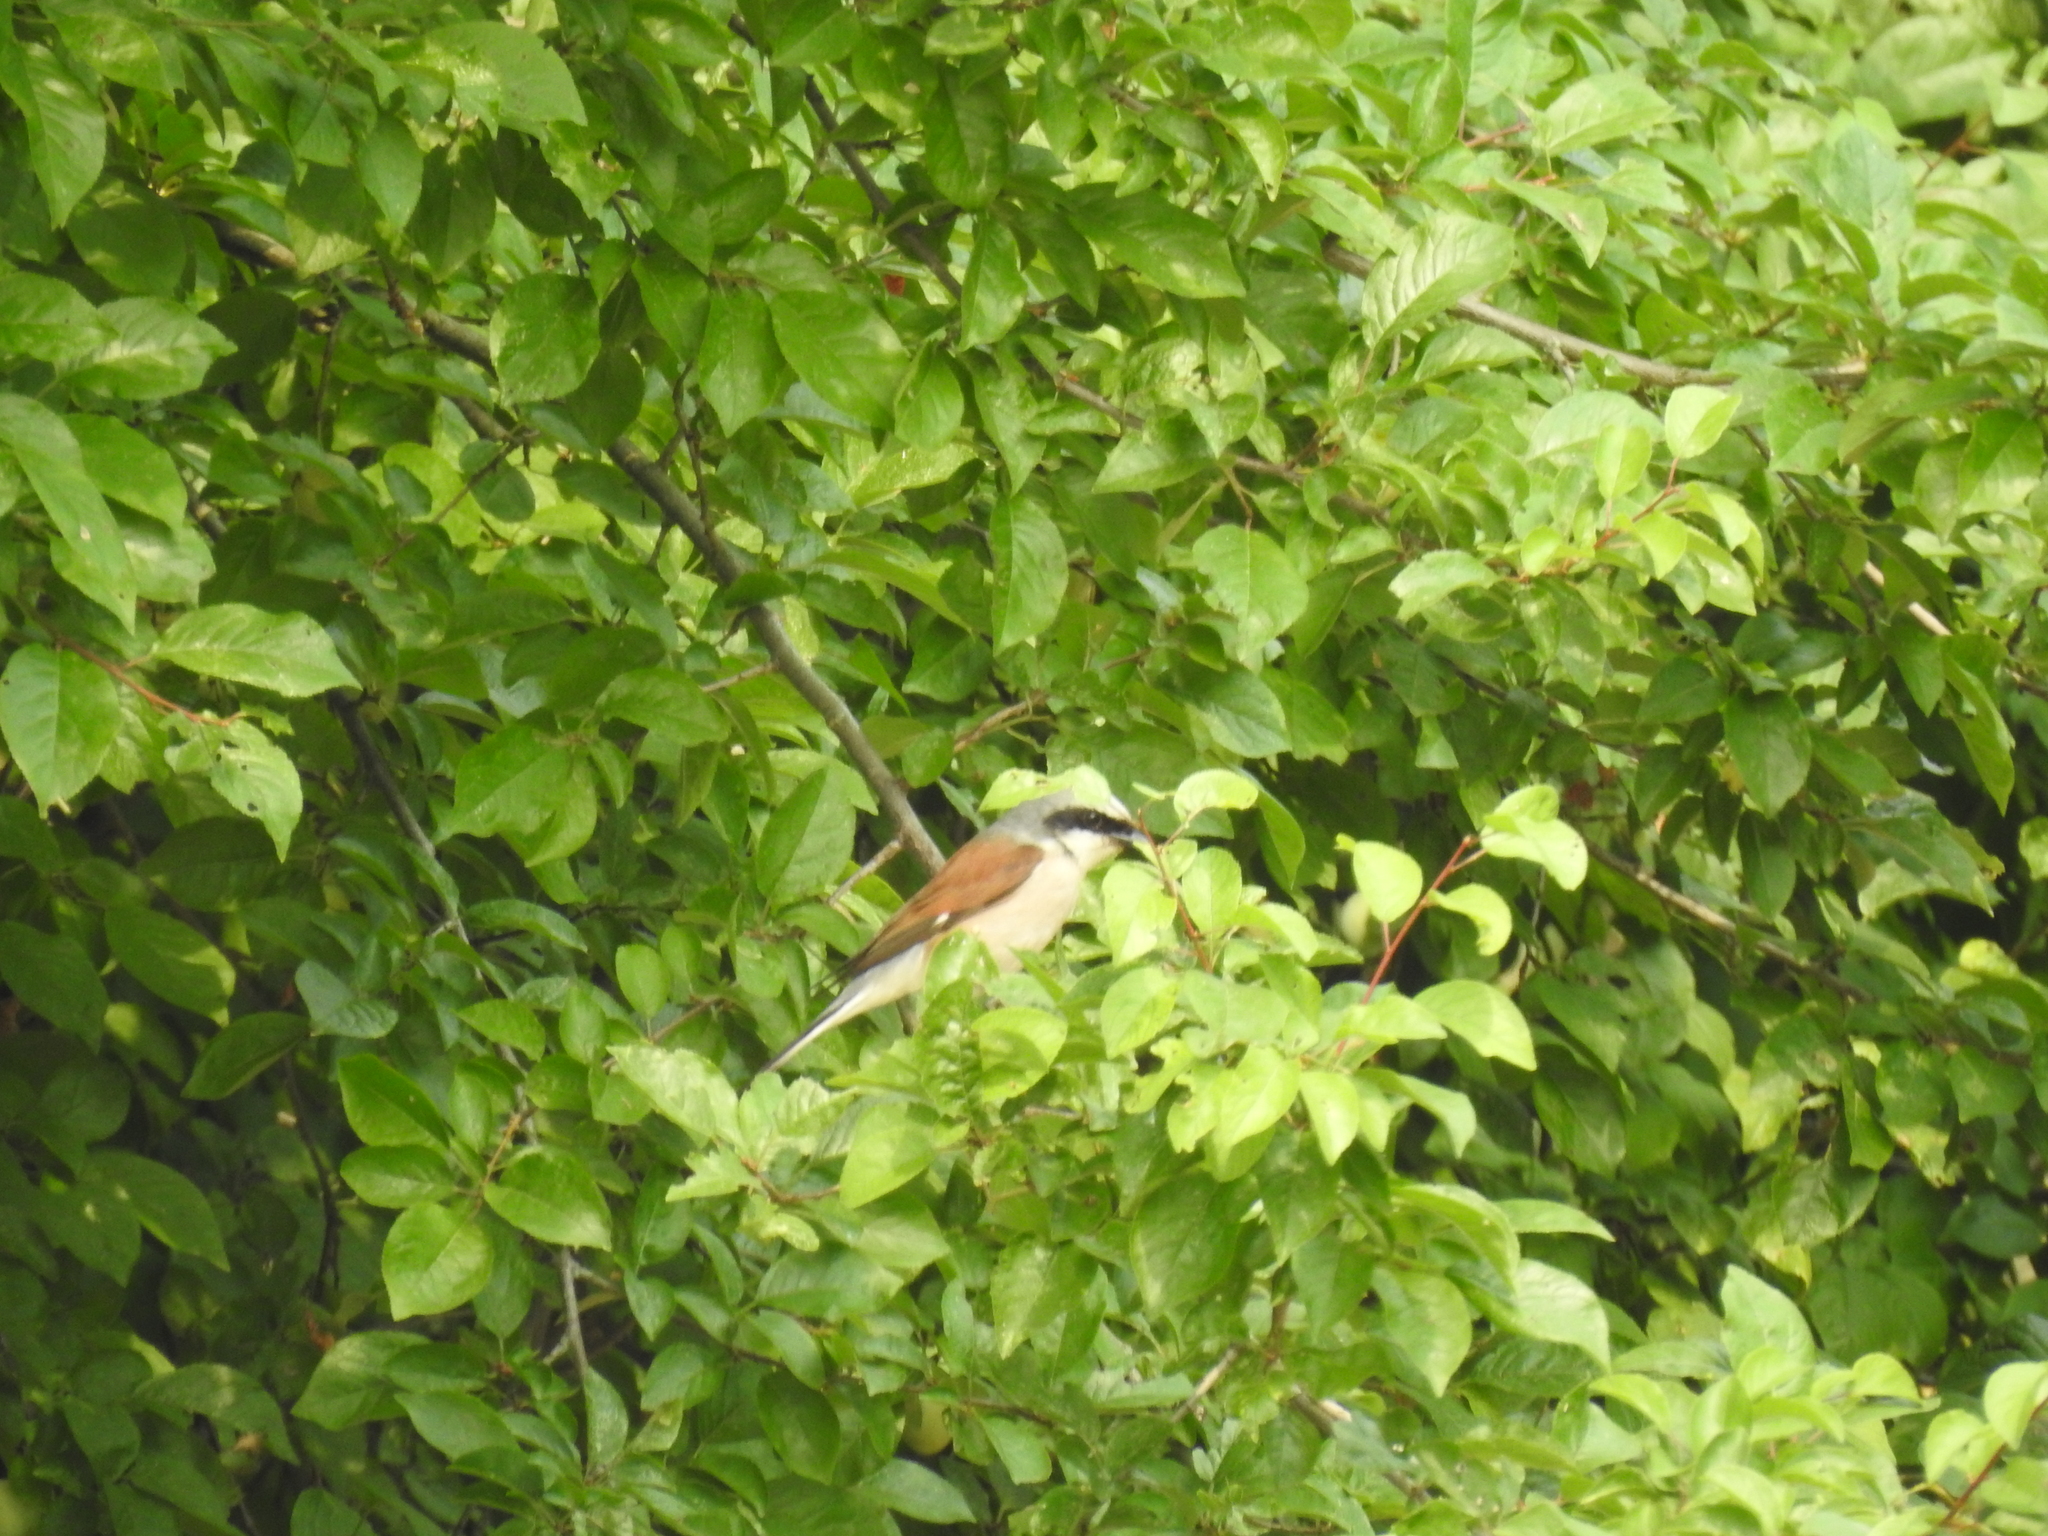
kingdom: Animalia
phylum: Chordata
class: Aves
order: Passeriformes
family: Laniidae
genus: Lanius
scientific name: Lanius collurio
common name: Red-backed shrike
